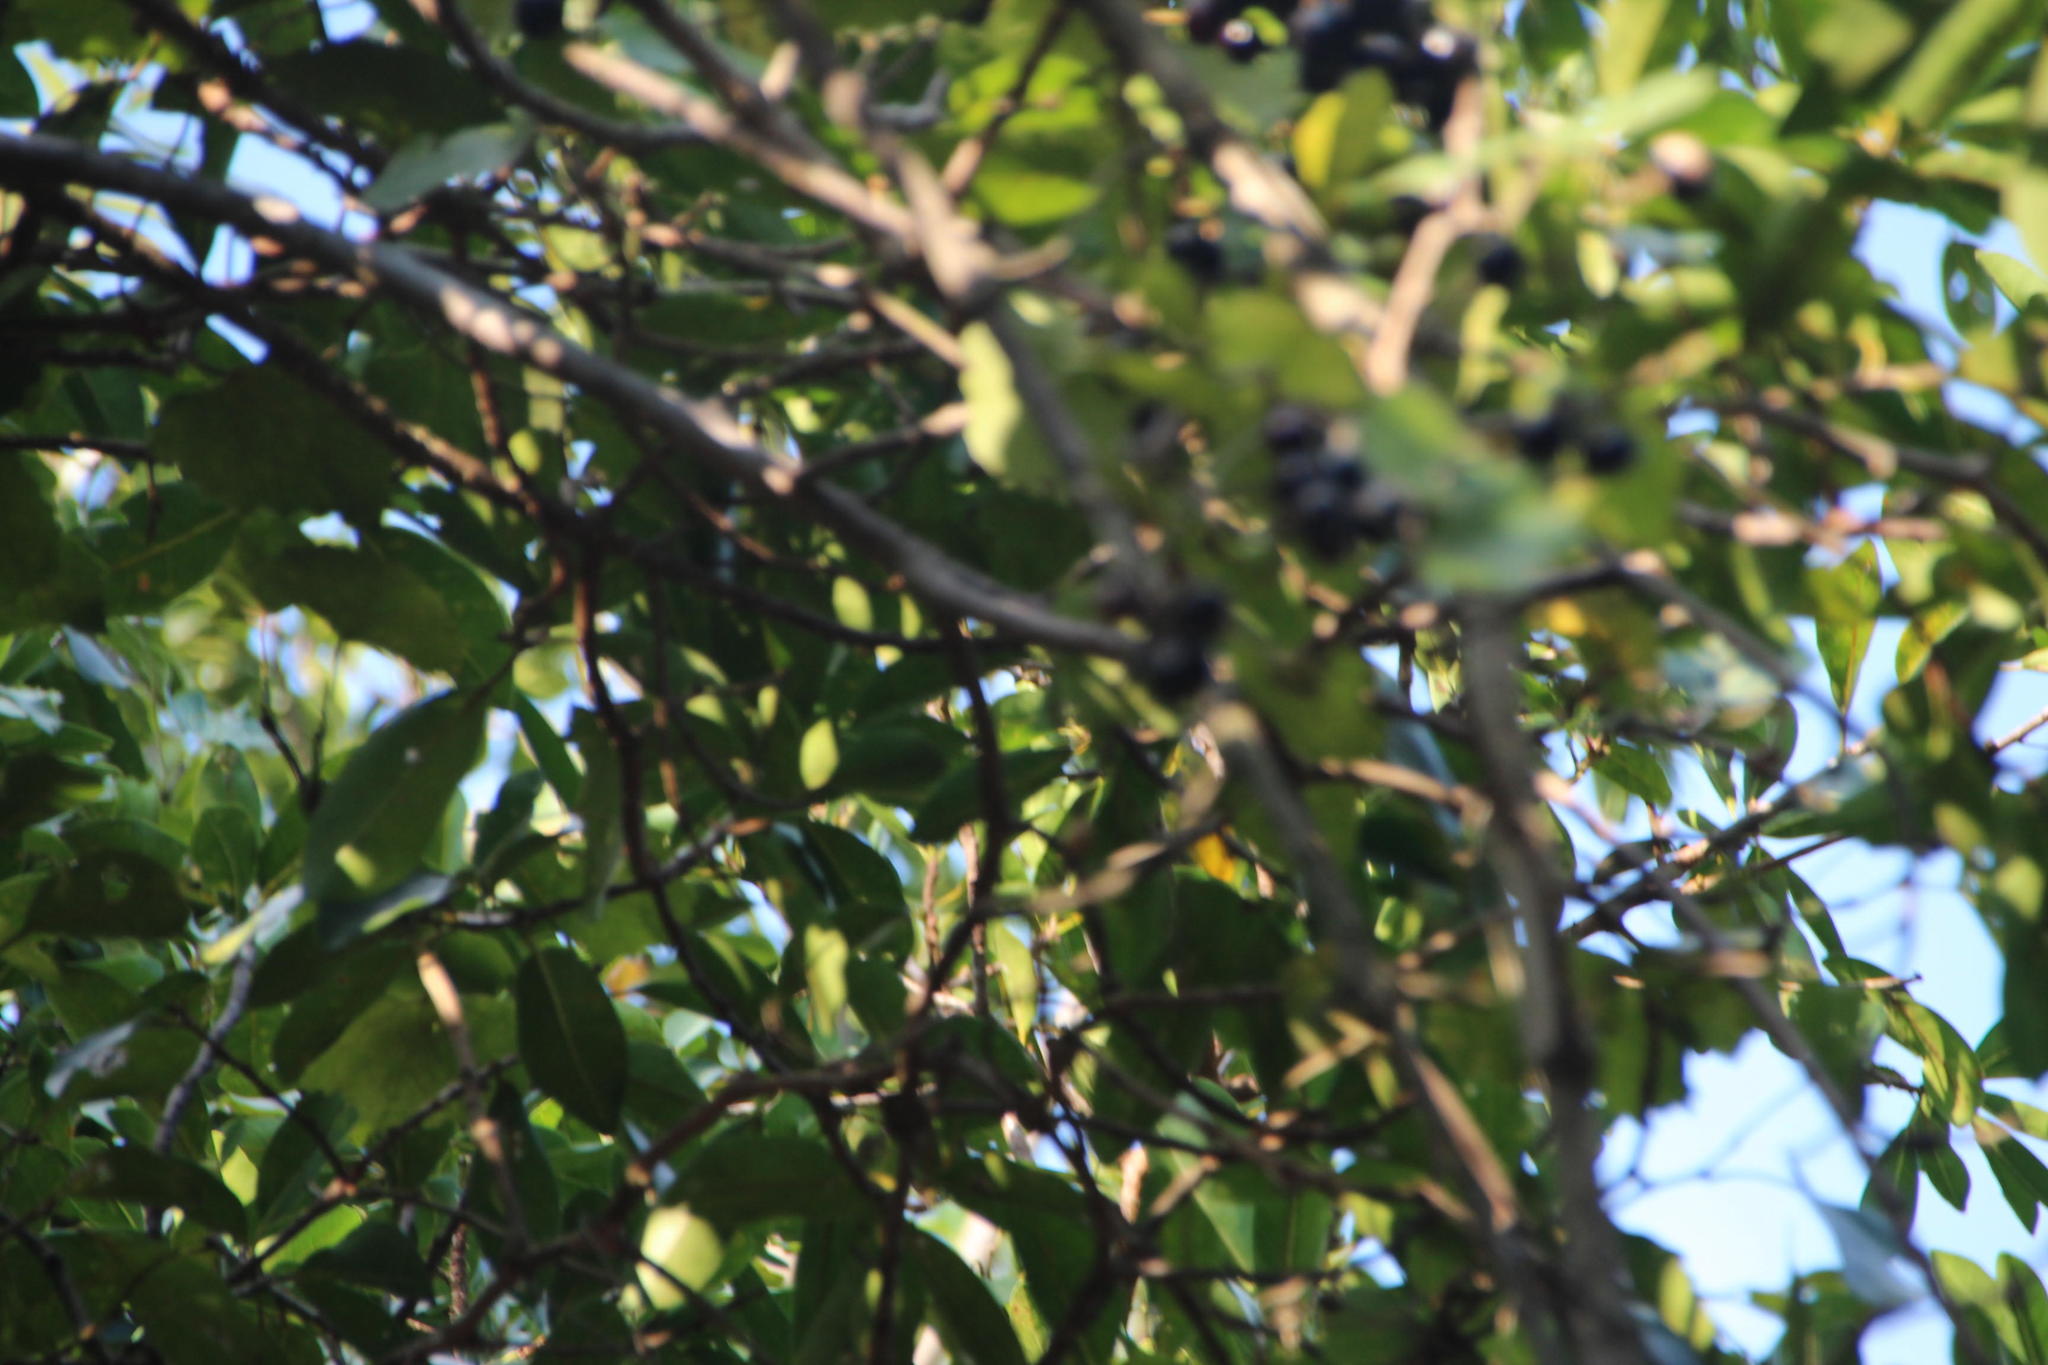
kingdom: Plantae
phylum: Tracheophyta
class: Magnoliopsida
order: Rosales
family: Moraceae
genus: Ficus
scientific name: Ficus thonningii
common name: Fig
